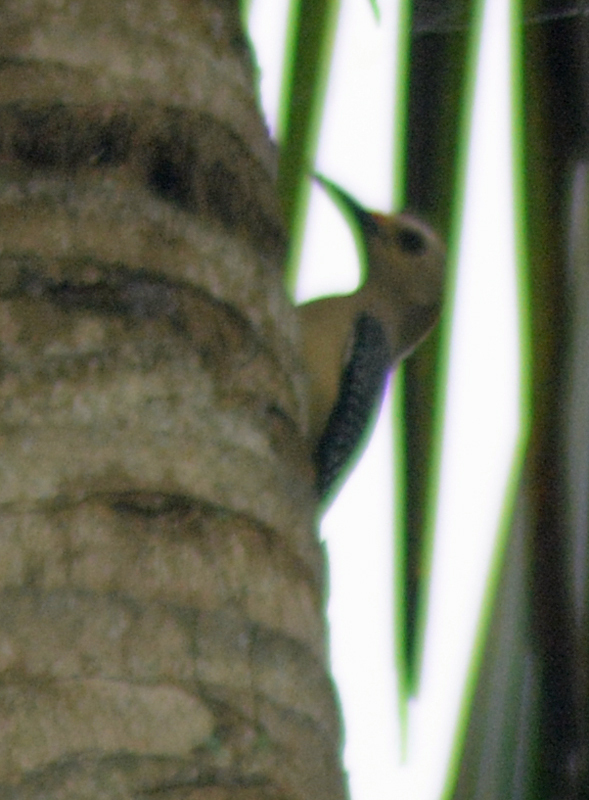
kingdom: Animalia
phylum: Chordata
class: Aves
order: Piciformes
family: Picidae
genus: Melanerpes
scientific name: Melanerpes aurifrons
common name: Golden-fronted woodpecker
